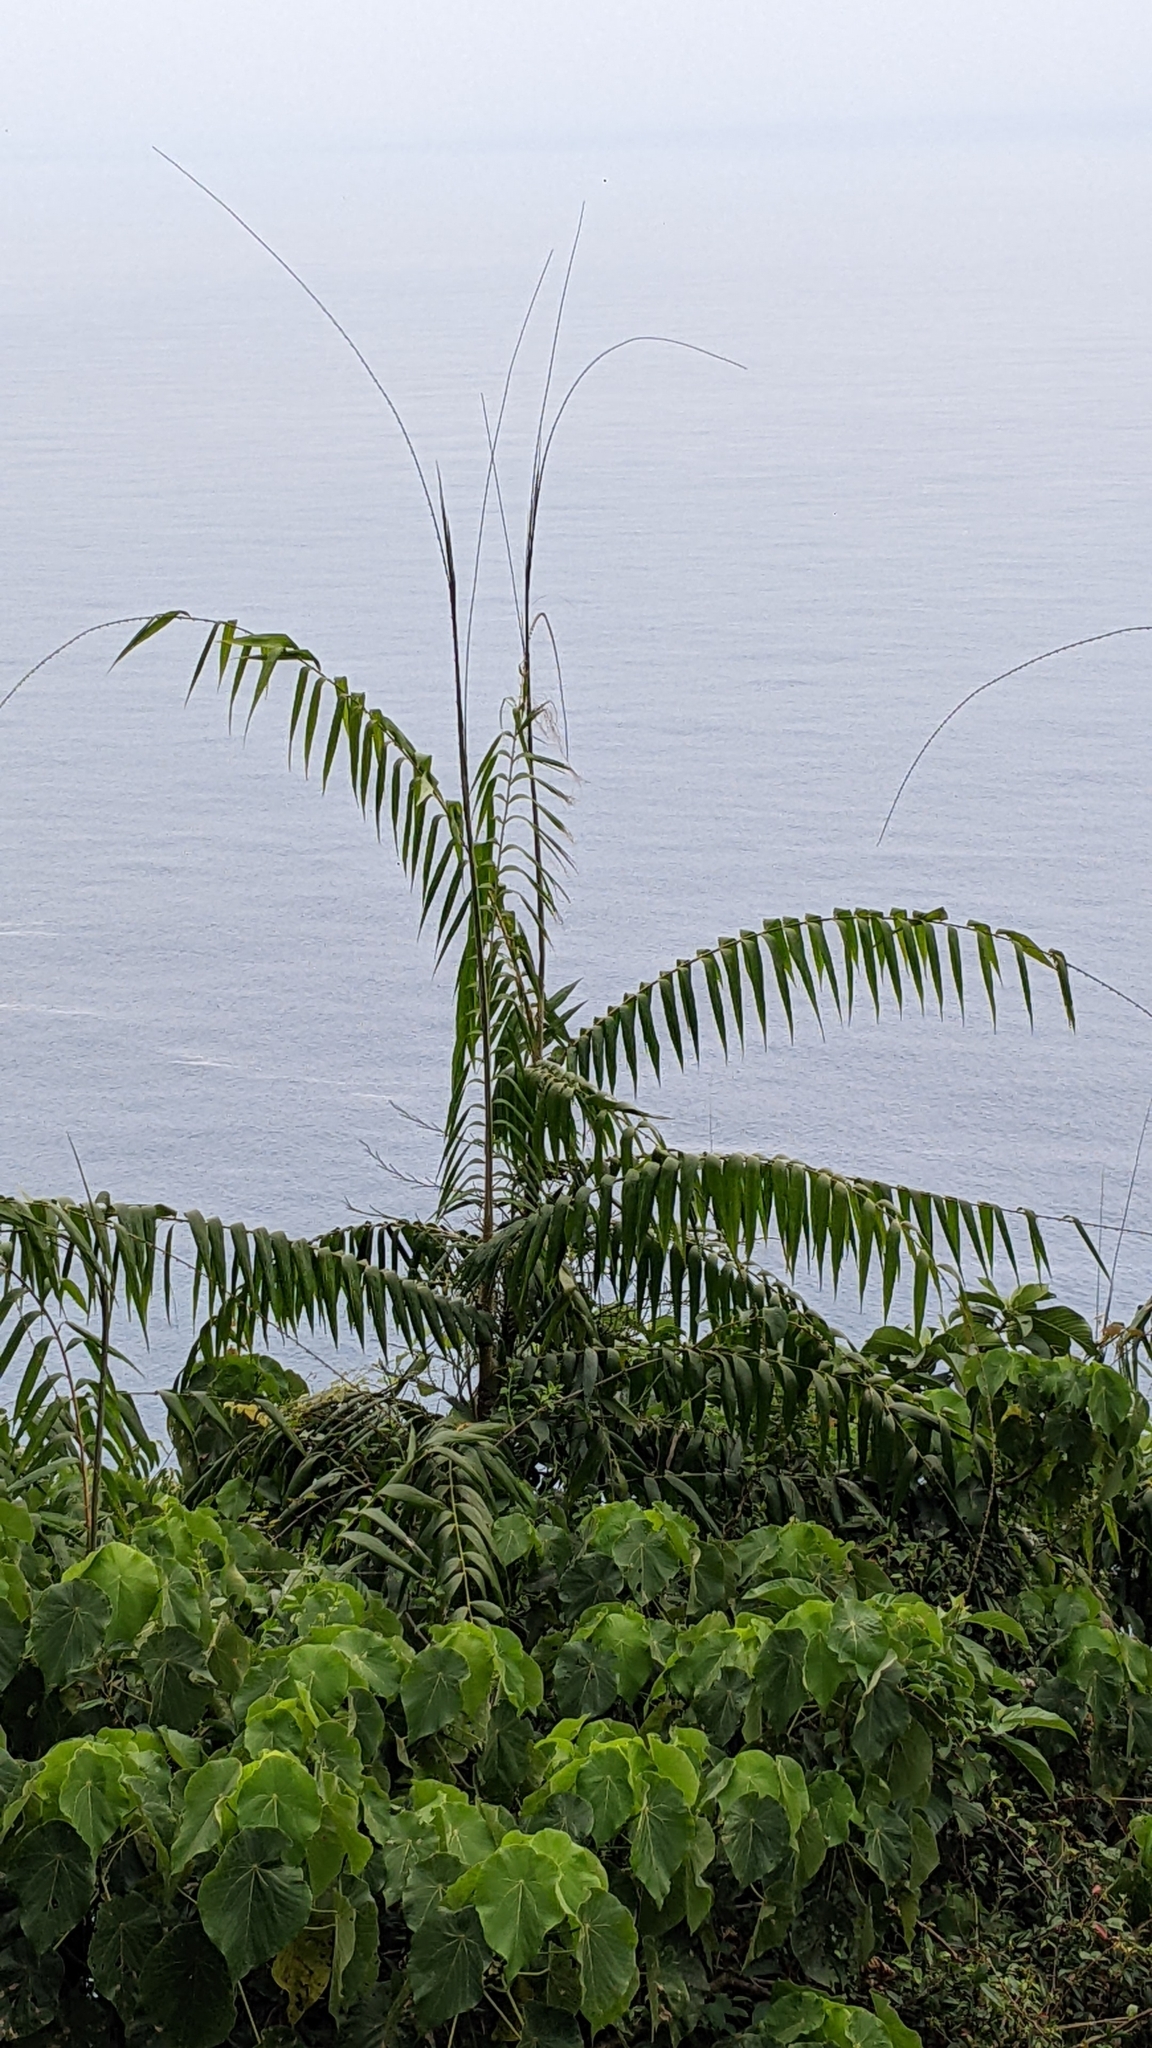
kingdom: Plantae
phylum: Tracheophyta
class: Liliopsida
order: Arecales
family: Arecaceae
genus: Calamus
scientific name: Calamus formosanus
